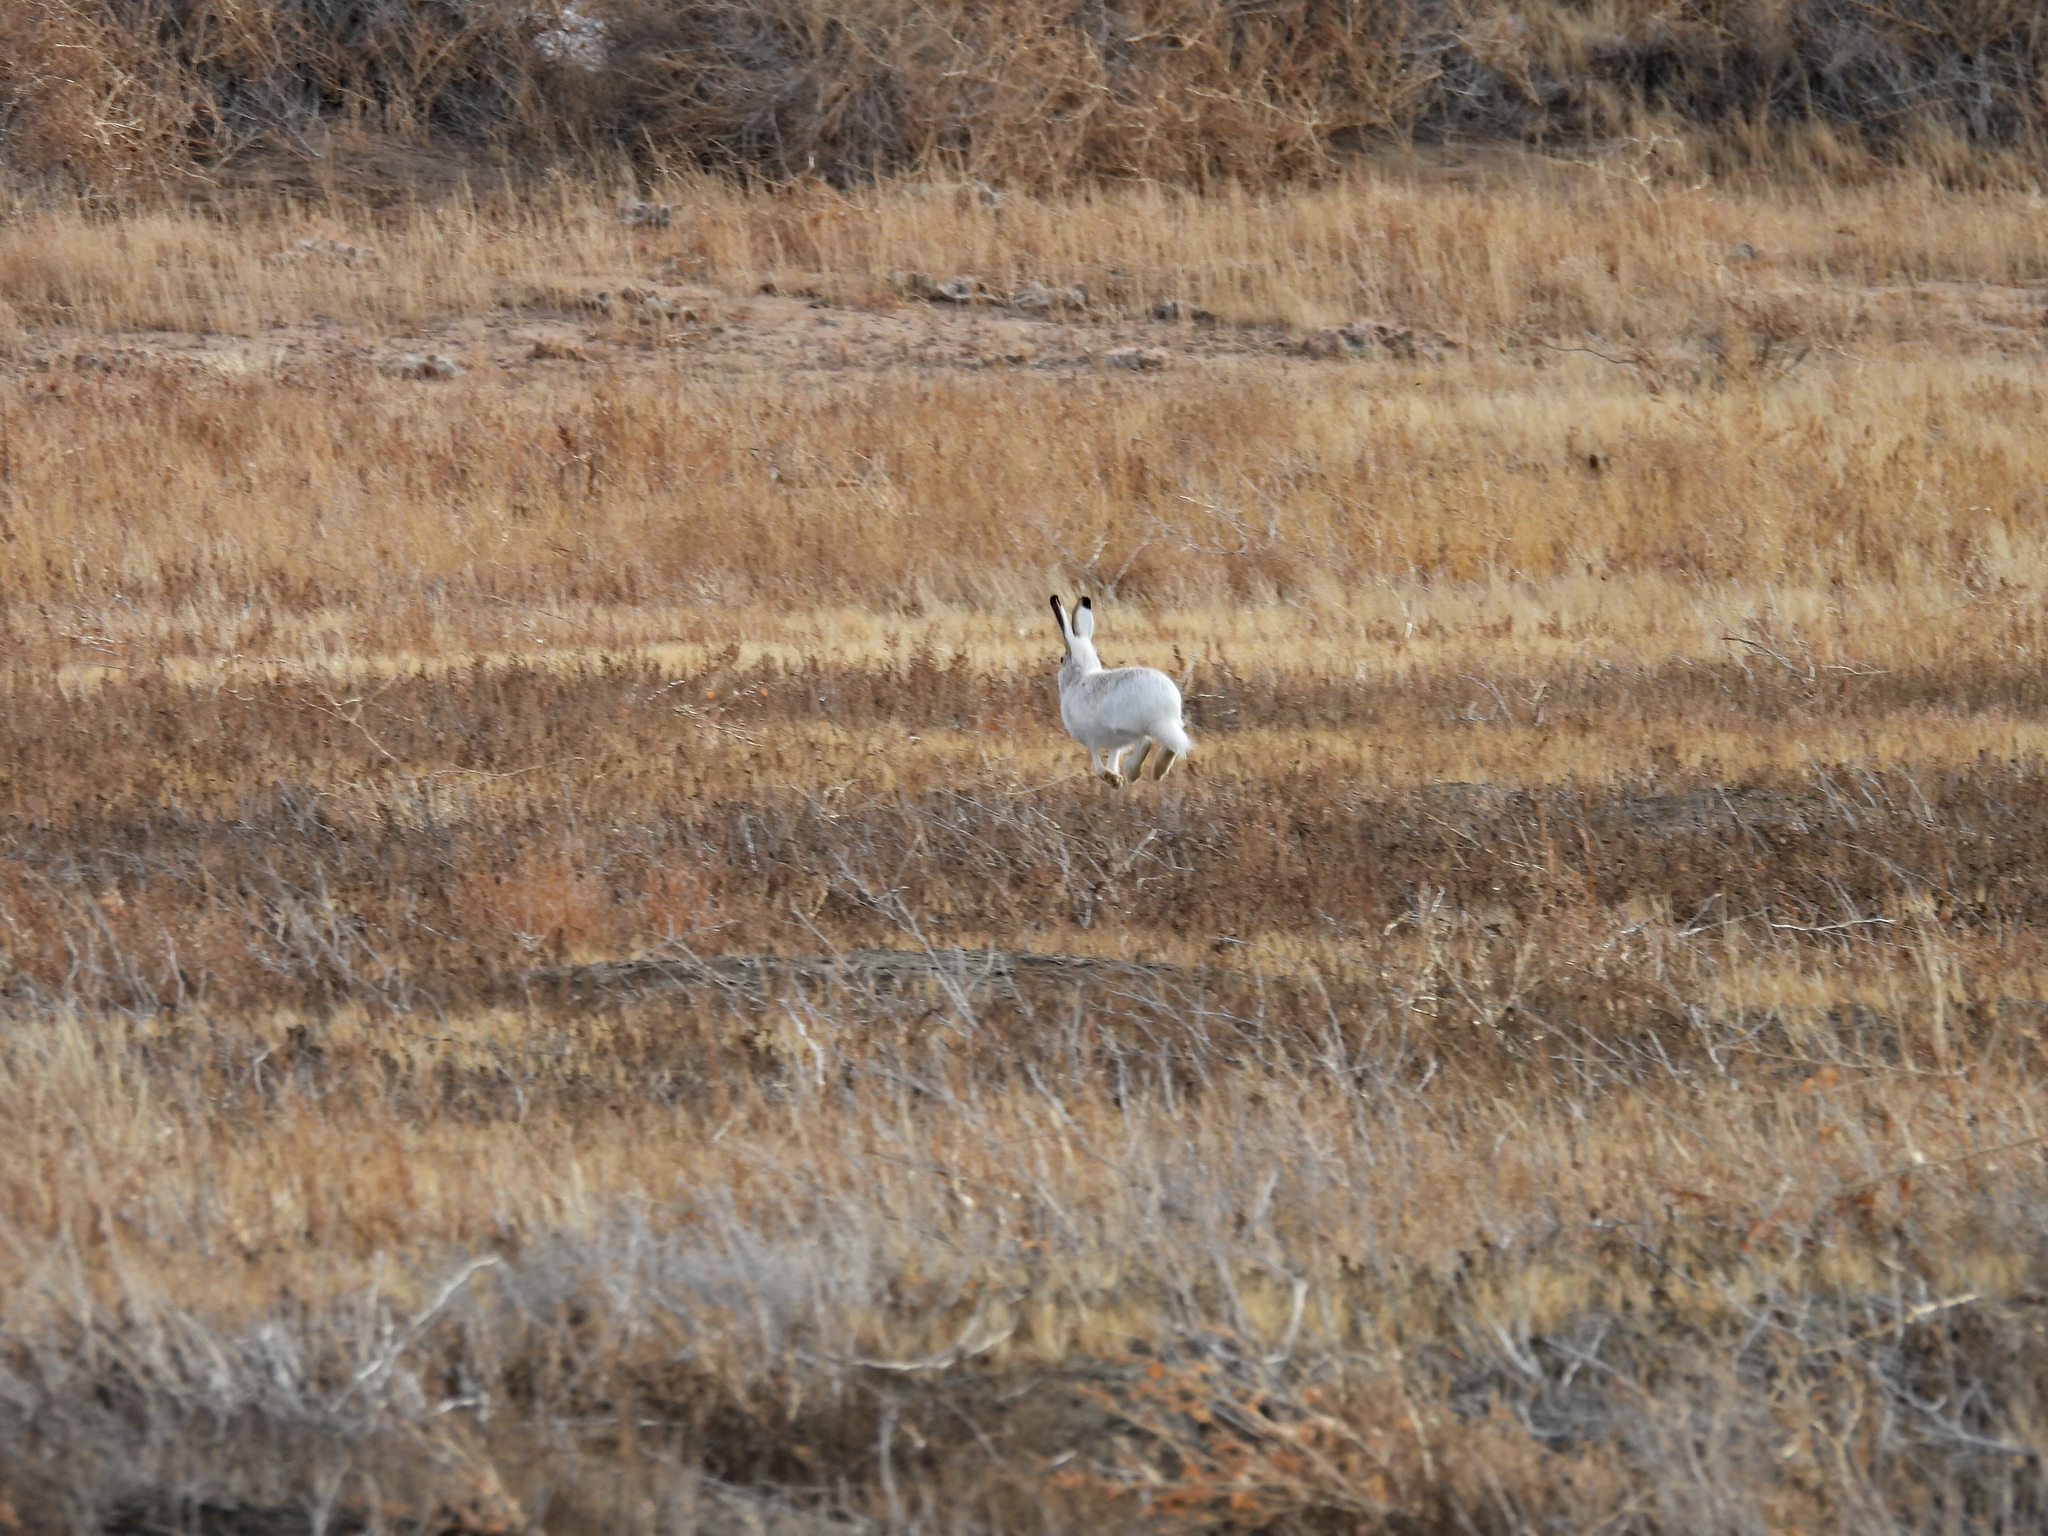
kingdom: Animalia
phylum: Chordata
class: Mammalia
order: Lagomorpha
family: Leporidae
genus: Lepus
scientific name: Lepus townsendii
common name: White-tailed jackrabbit
